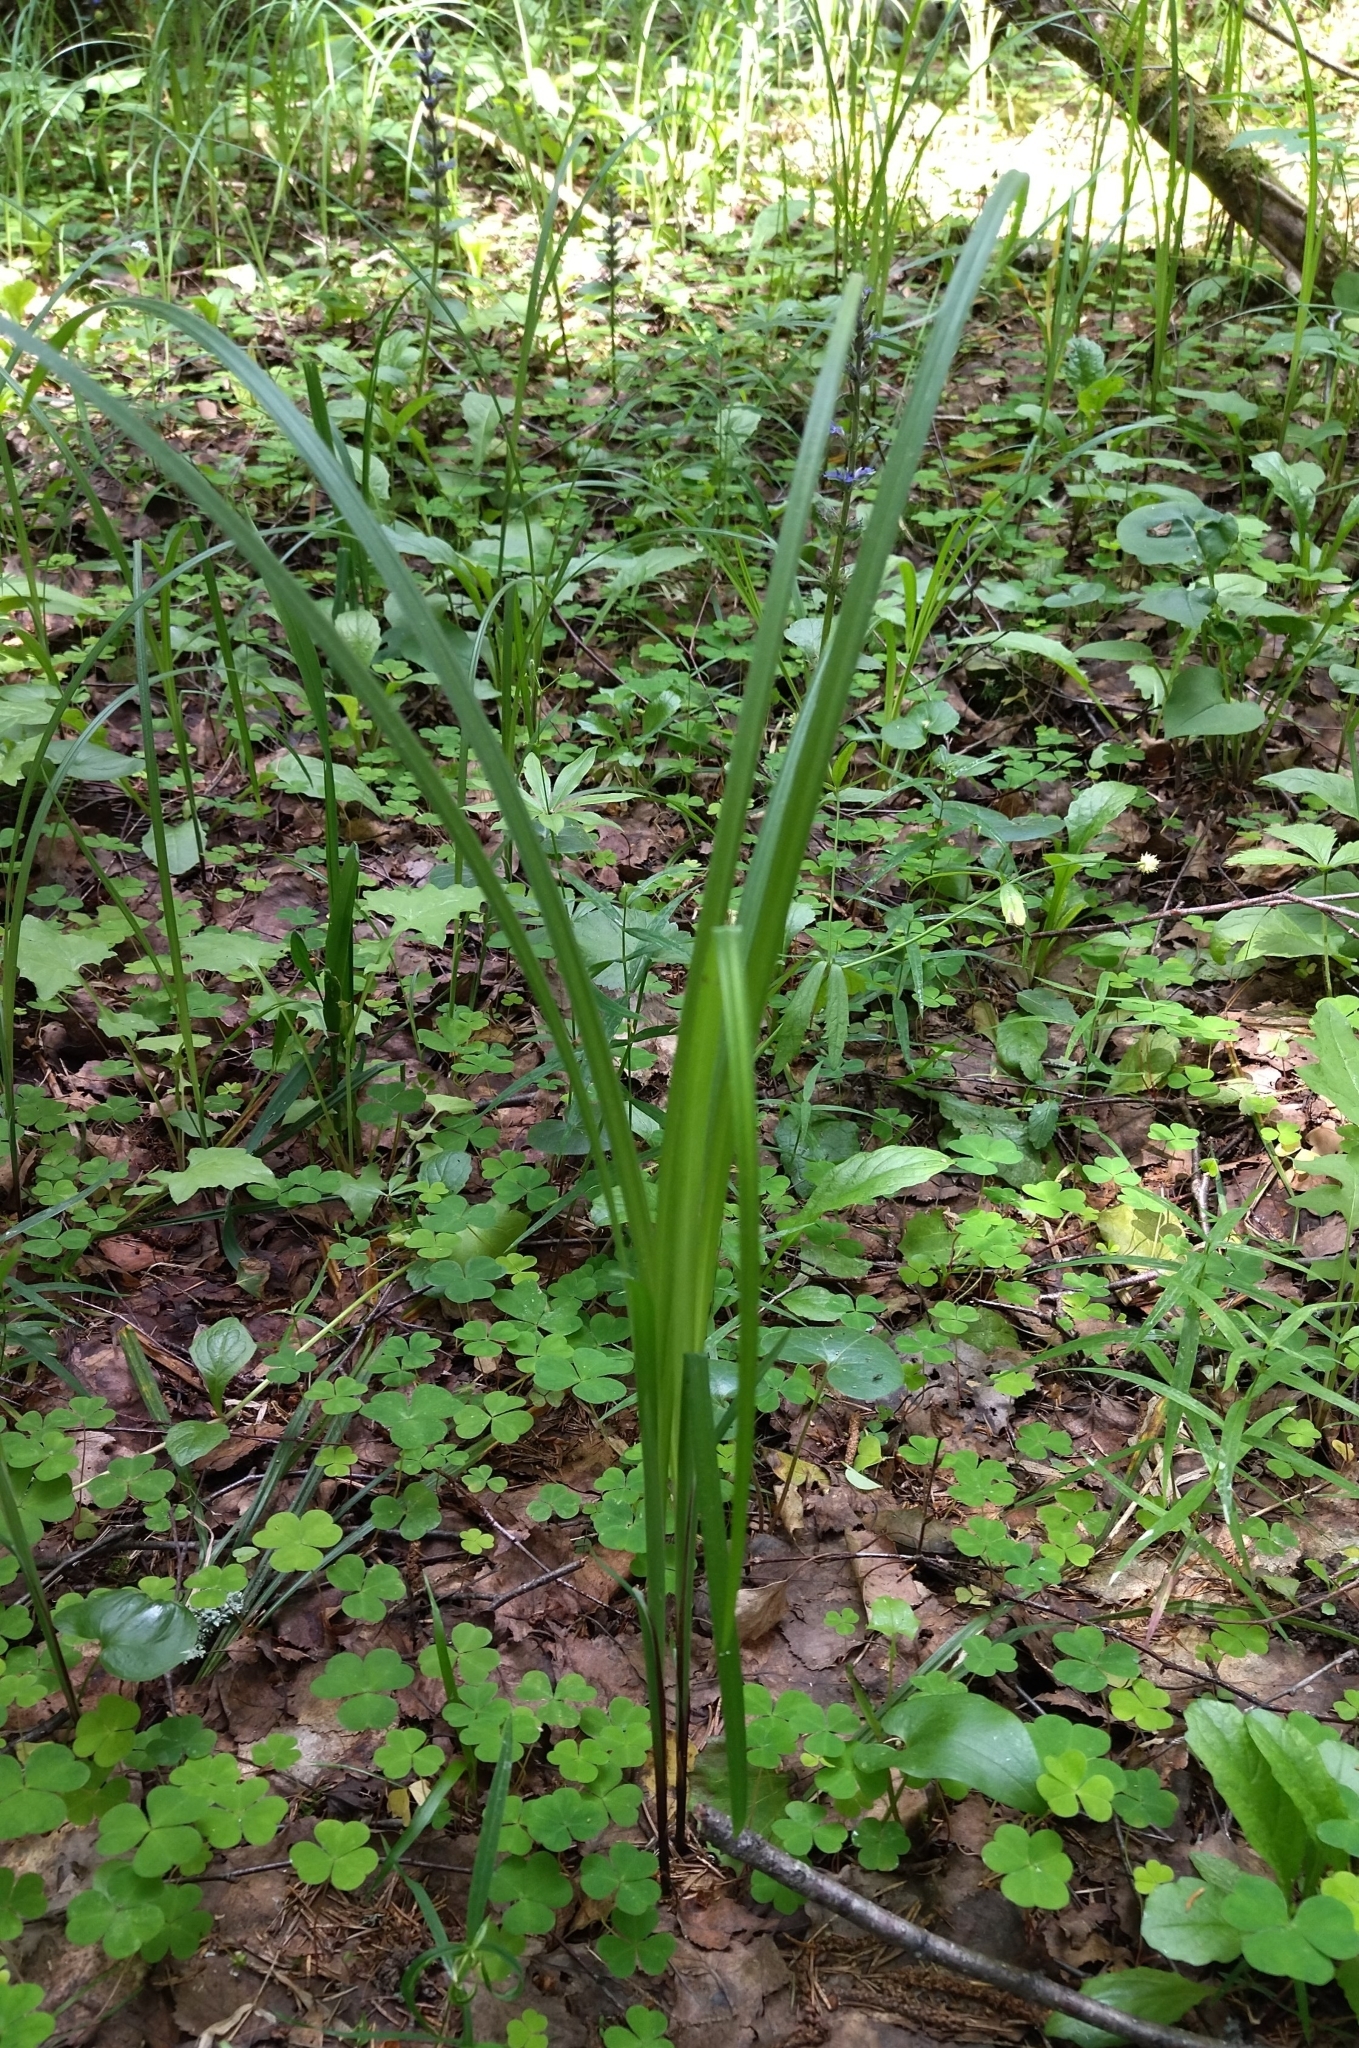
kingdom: Plantae
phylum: Tracheophyta
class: Liliopsida
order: Poales
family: Cyperaceae
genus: Carex
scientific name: Carex pilosa
